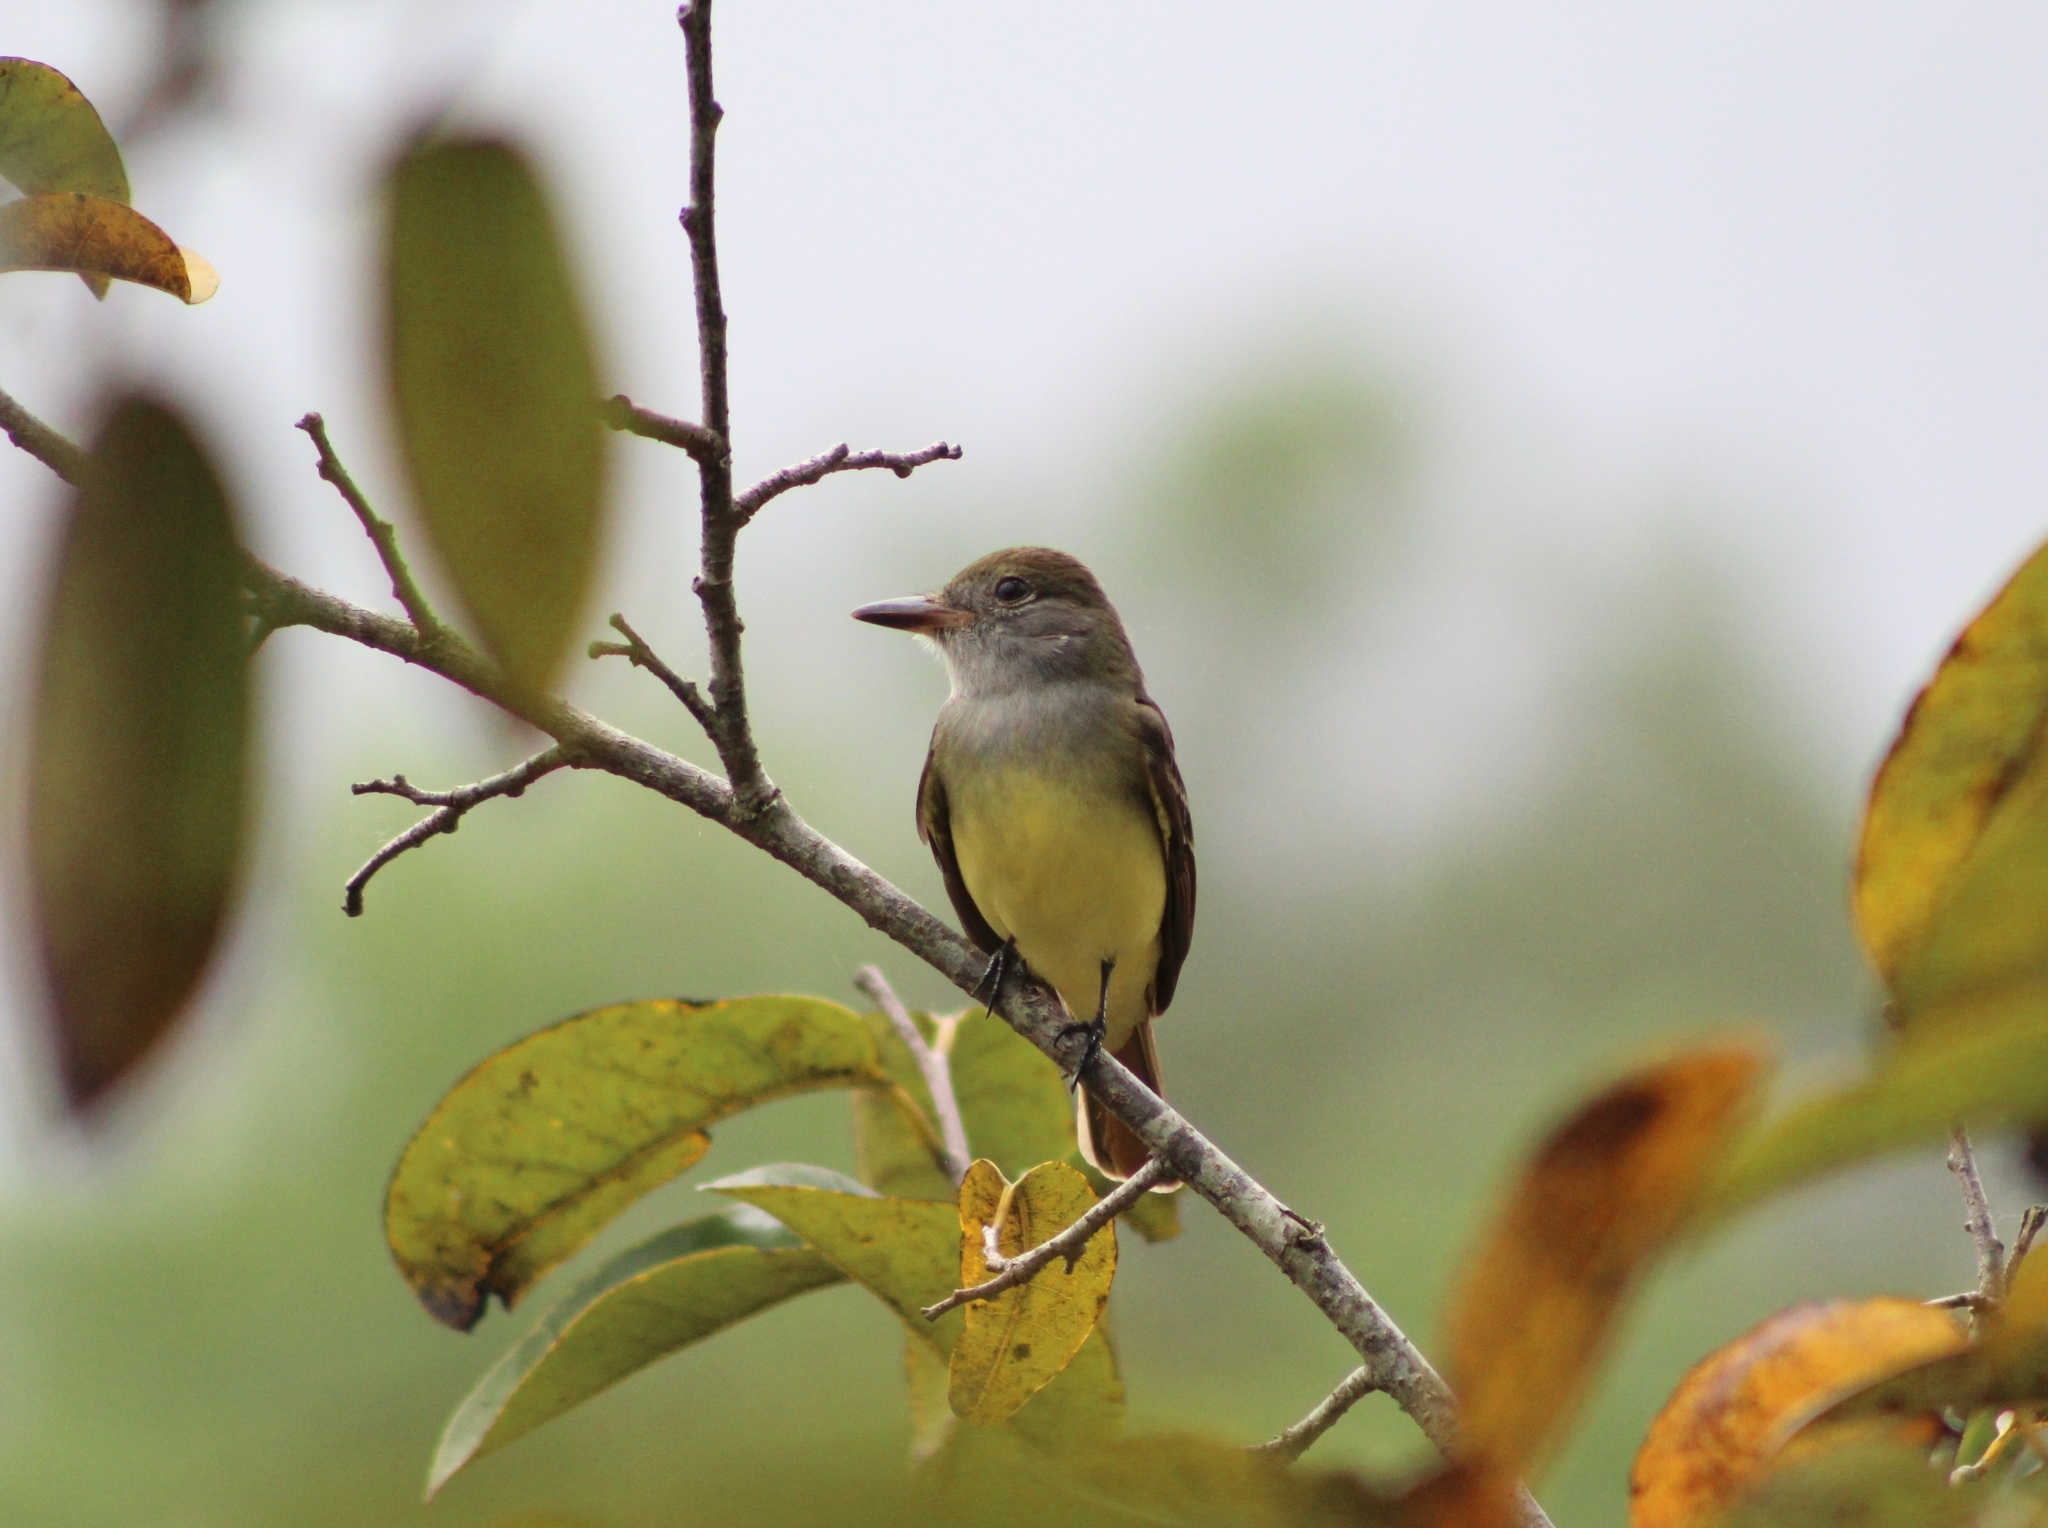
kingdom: Animalia
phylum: Chordata
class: Aves
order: Passeriformes
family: Tyrannidae
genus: Myiarchus
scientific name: Myiarchus crinitus
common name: Great crested flycatcher
